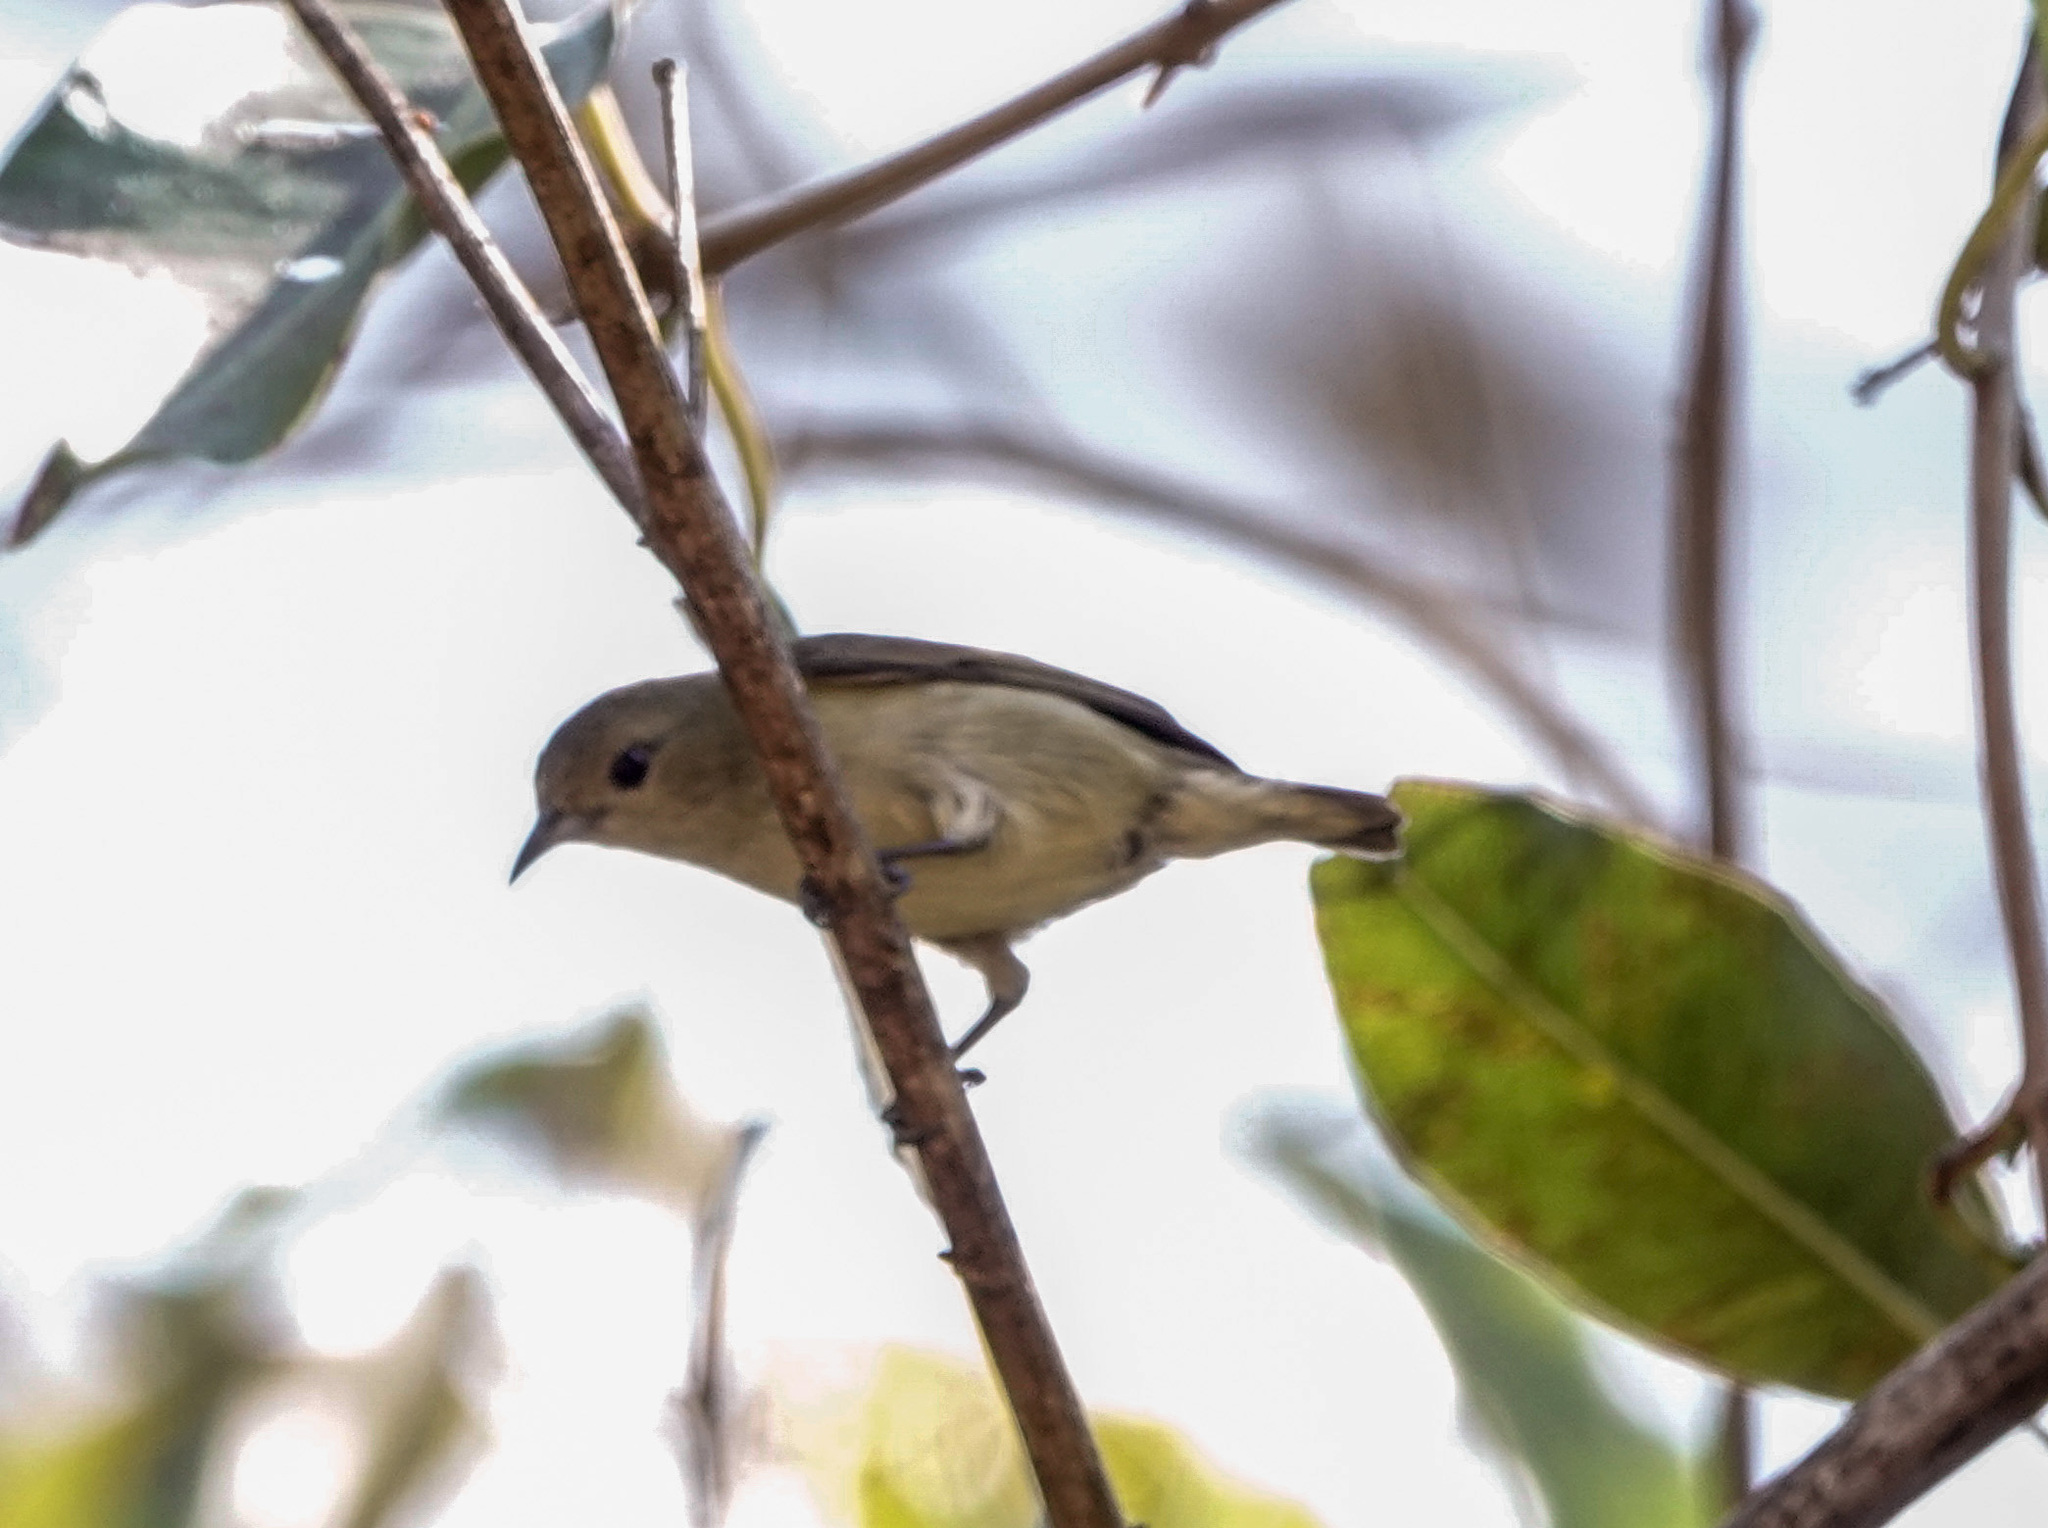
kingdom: Animalia
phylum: Chordata
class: Aves
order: Passeriformes
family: Dicaeidae
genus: Dicaeum
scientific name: Dicaeum minullum
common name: Plain flowerpecker
